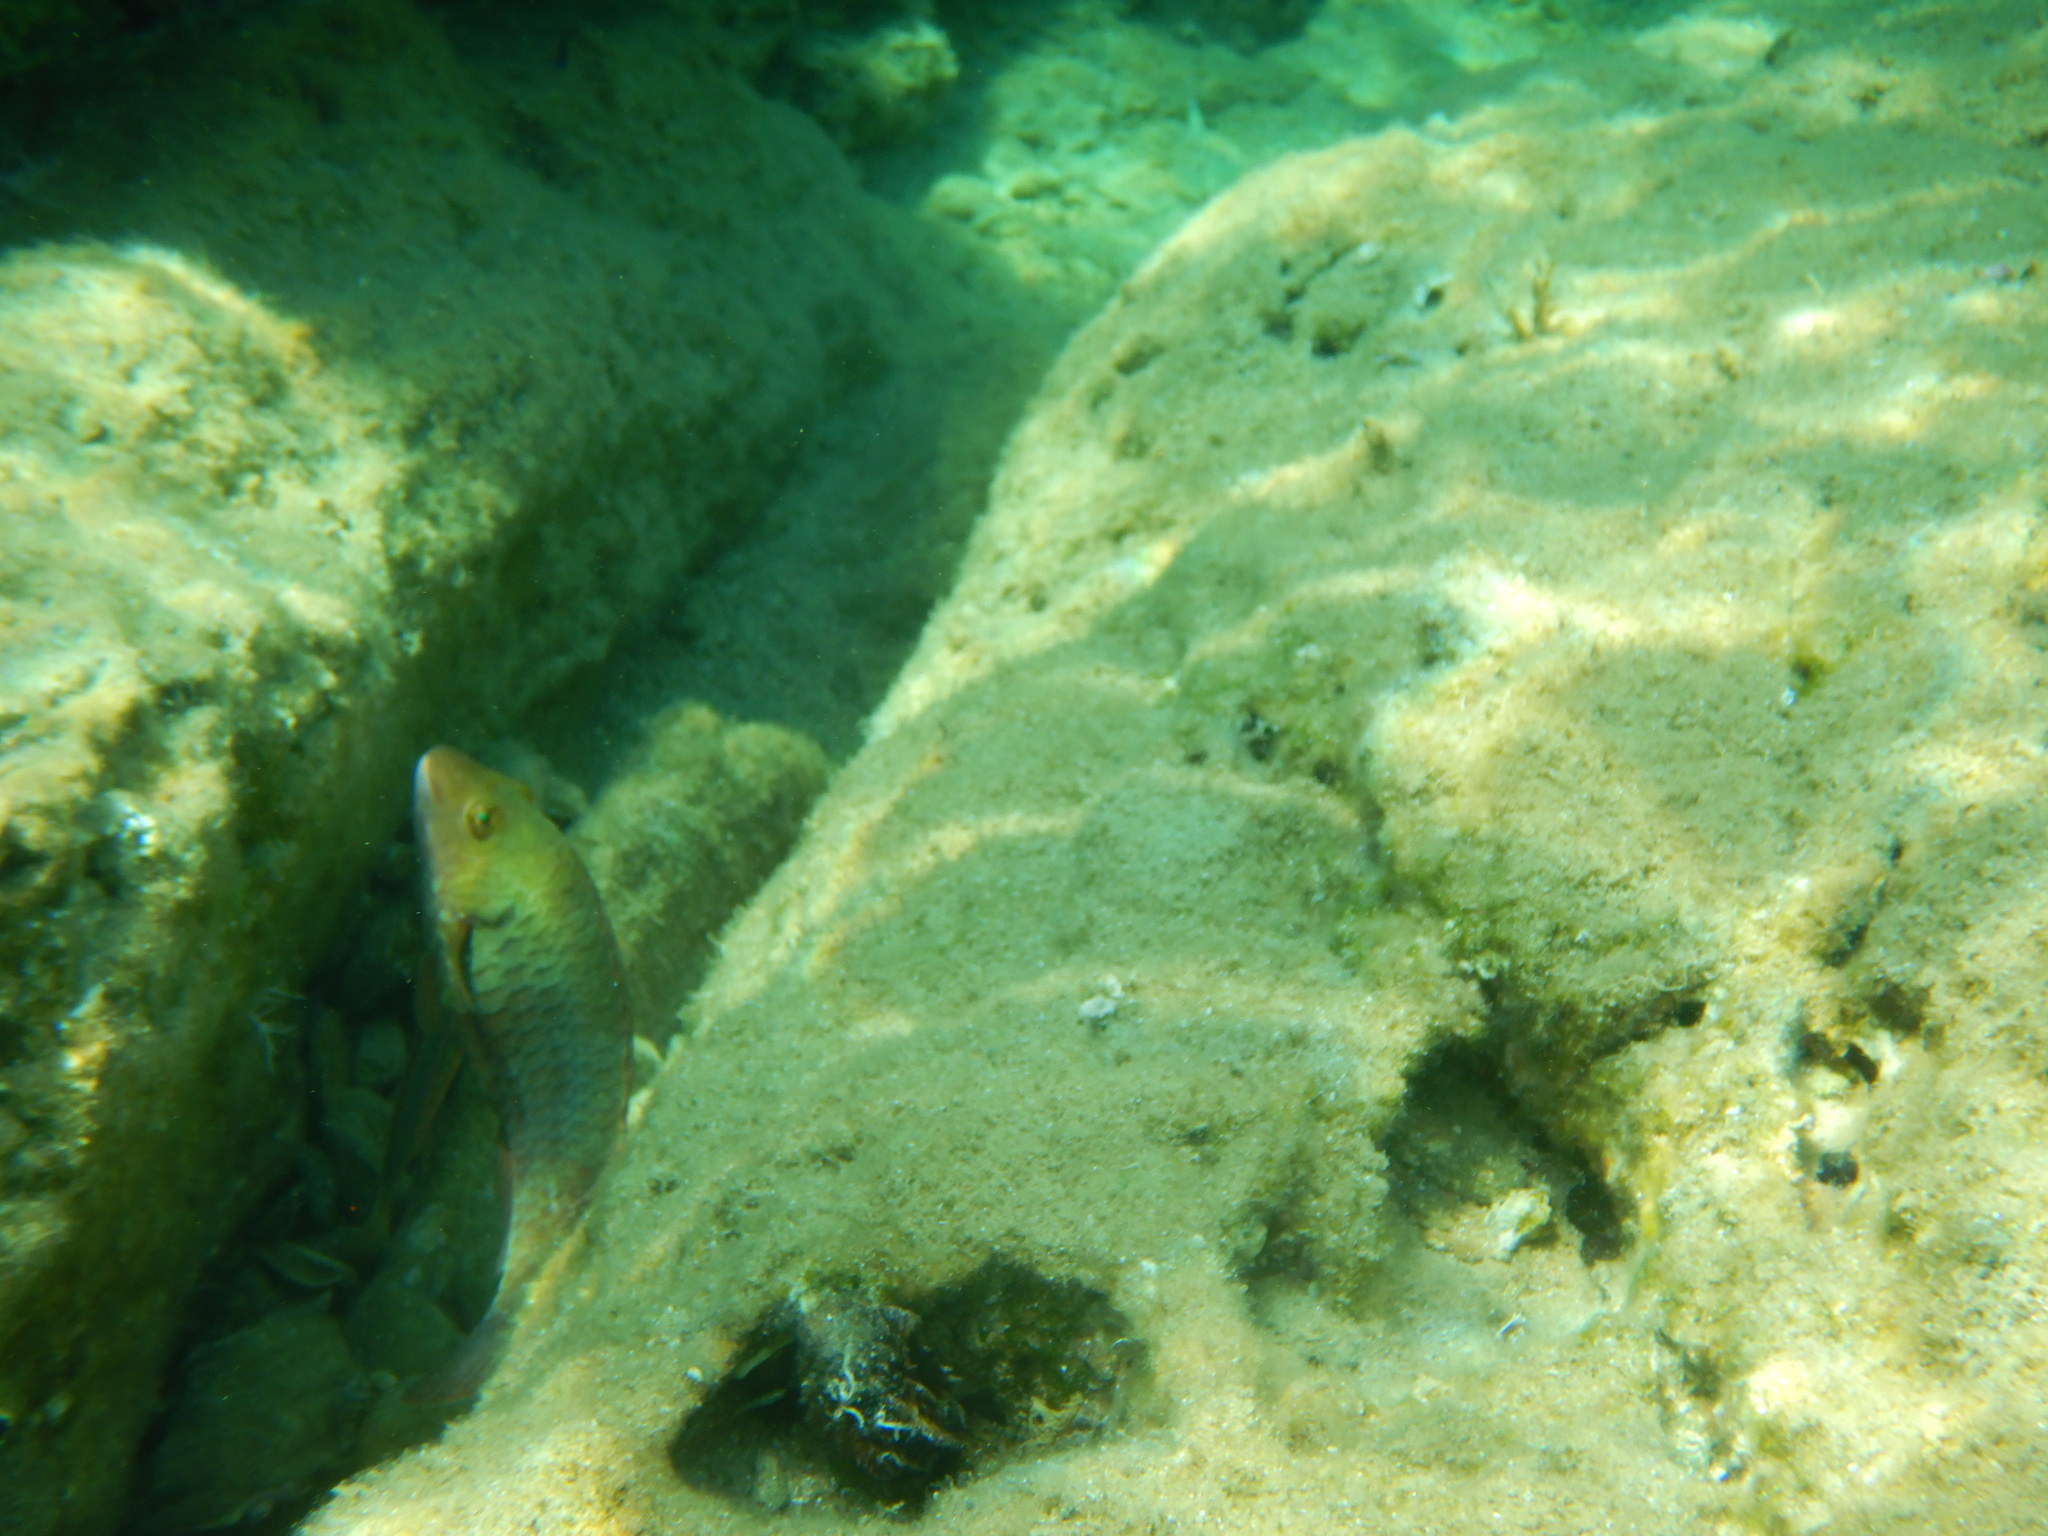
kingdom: Animalia
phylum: Chordata
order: Perciformes
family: Scaridae
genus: Sparisoma
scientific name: Sparisoma cretense
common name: Parrotfish
